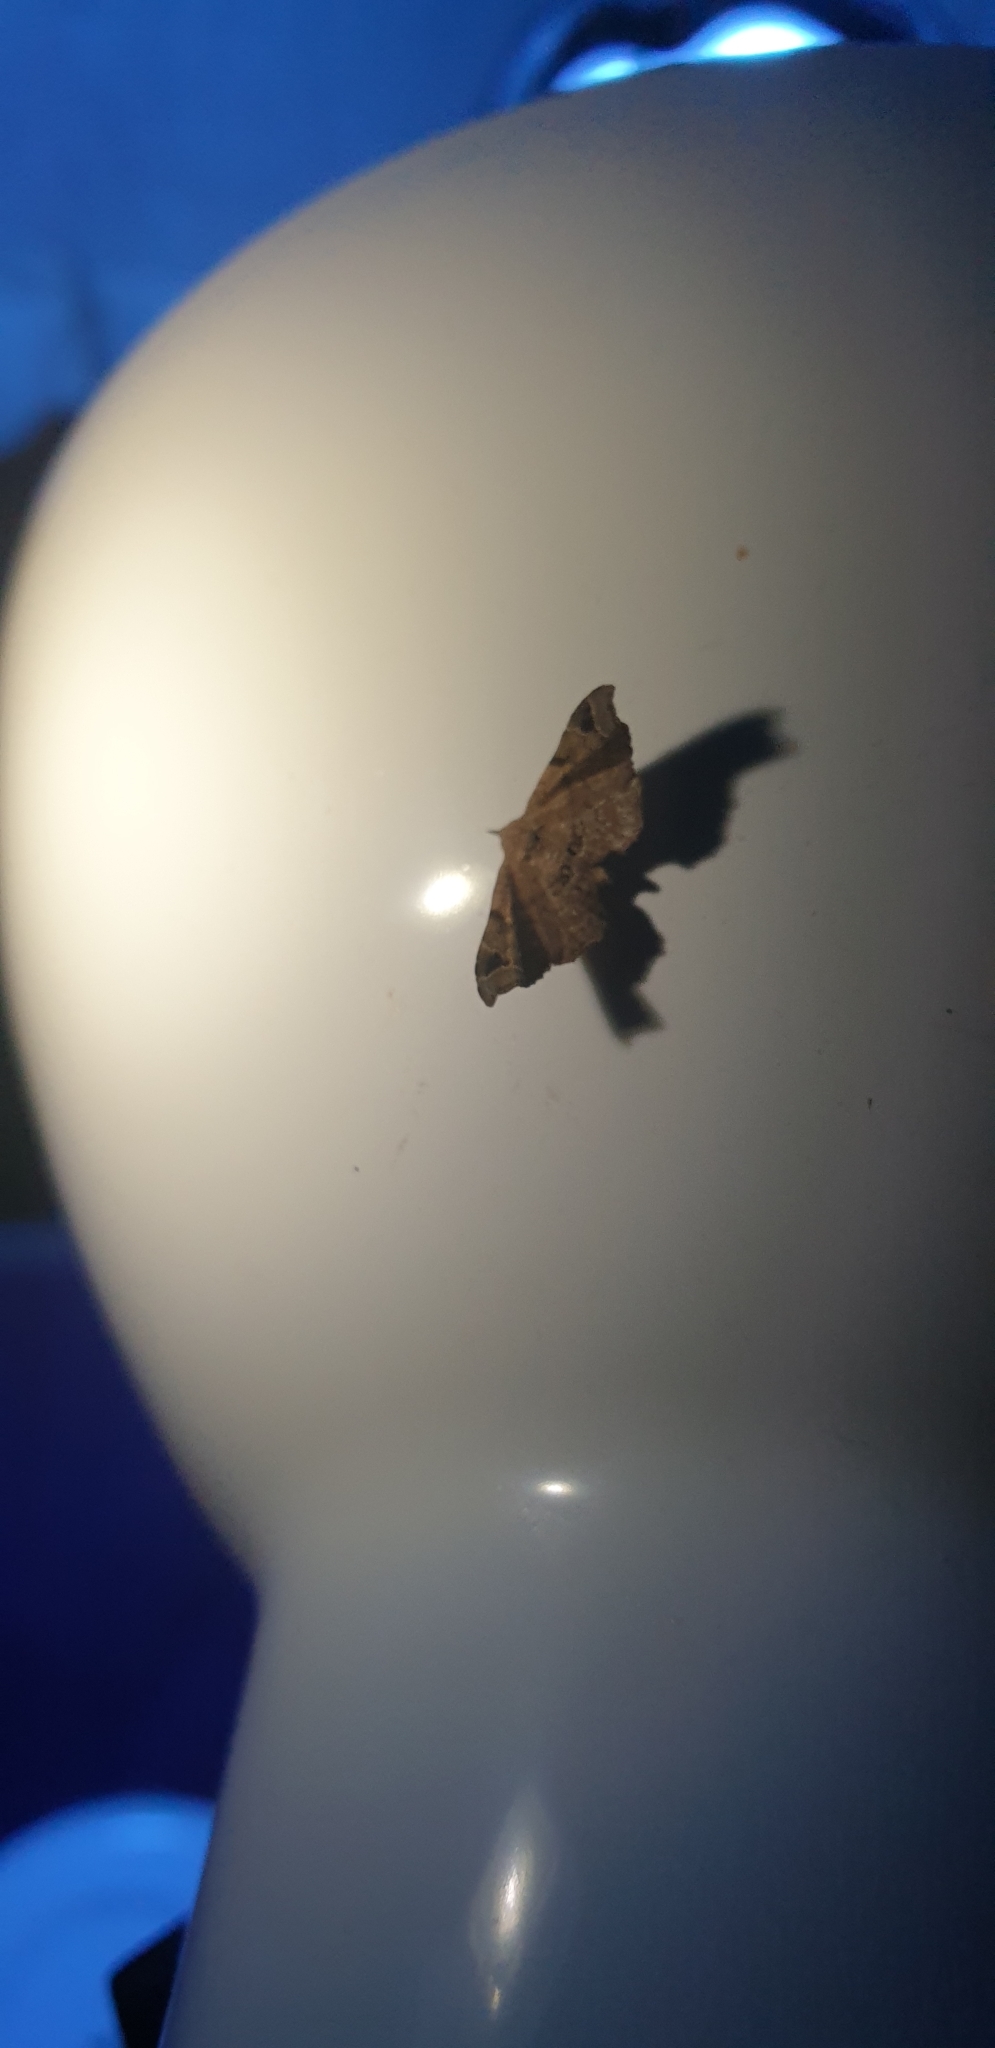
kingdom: Animalia
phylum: Arthropoda
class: Insecta
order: Lepidoptera
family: Erebidae
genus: Esthlodora
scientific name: Esthlodora variabilis
